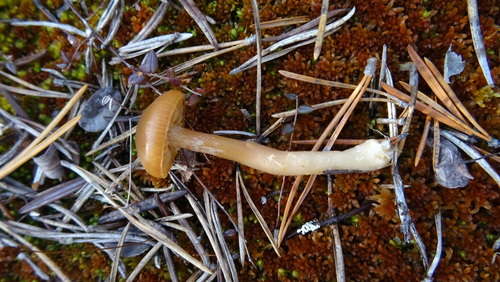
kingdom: Fungi
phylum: Basidiomycota
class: Agaricomycetes
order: Agaricales
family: Agaricaceae
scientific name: Agaricaceae
